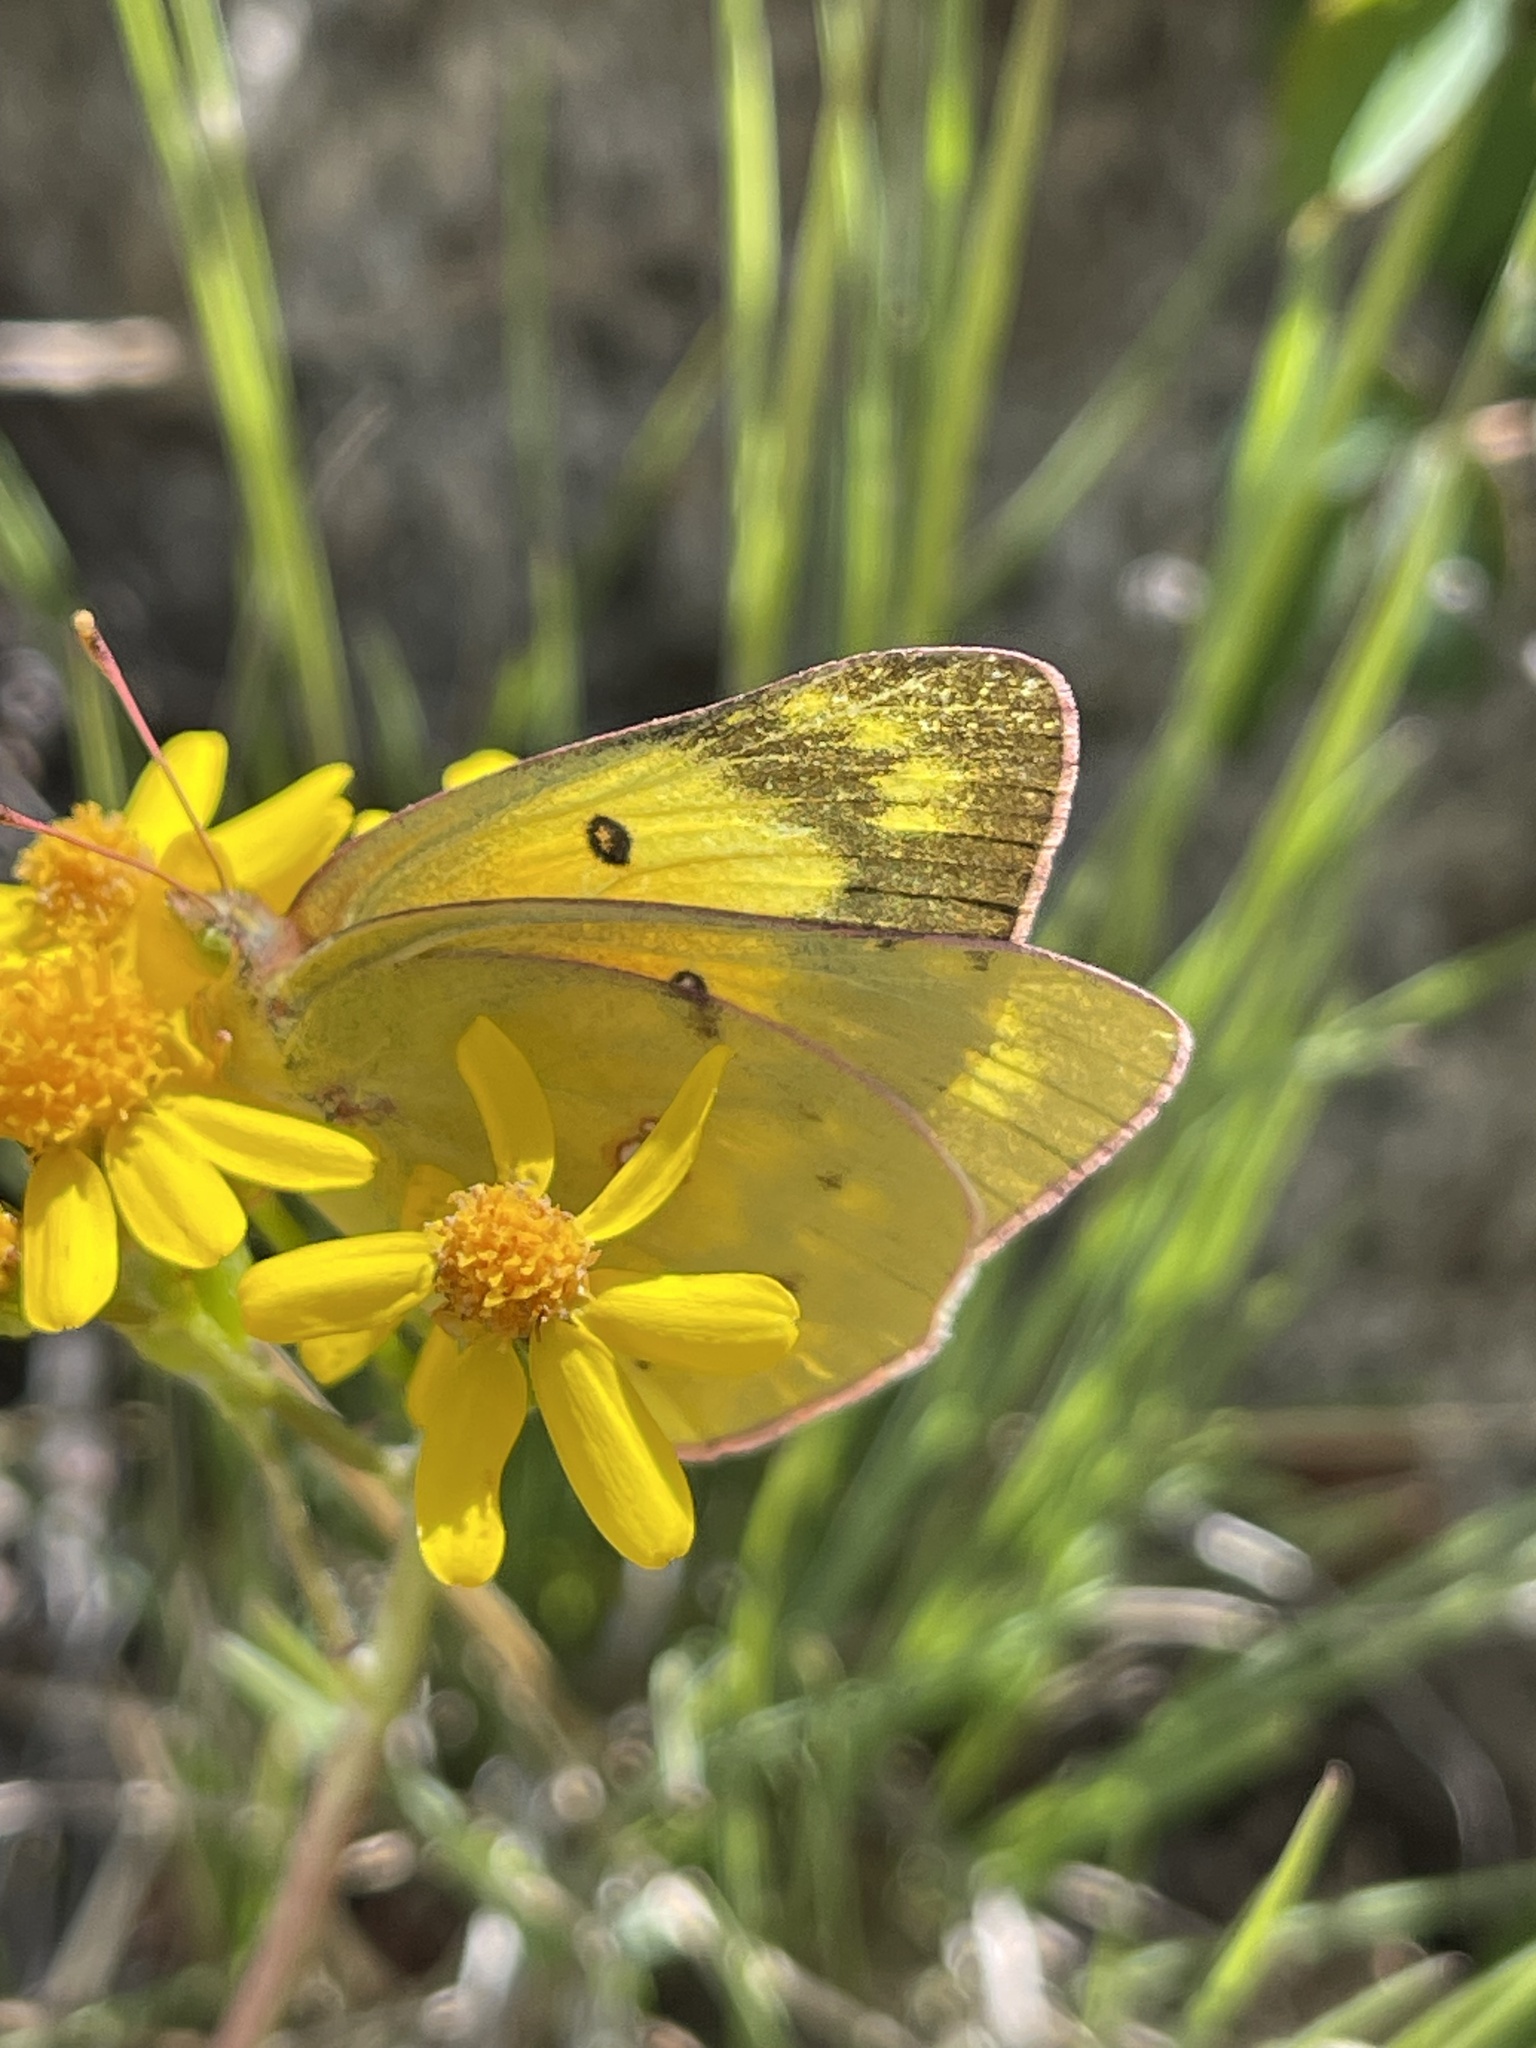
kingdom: Animalia
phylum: Arthropoda
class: Insecta
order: Lepidoptera
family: Pieridae
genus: Colias
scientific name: Colias eurytheme
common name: Alfalfa butterfly
